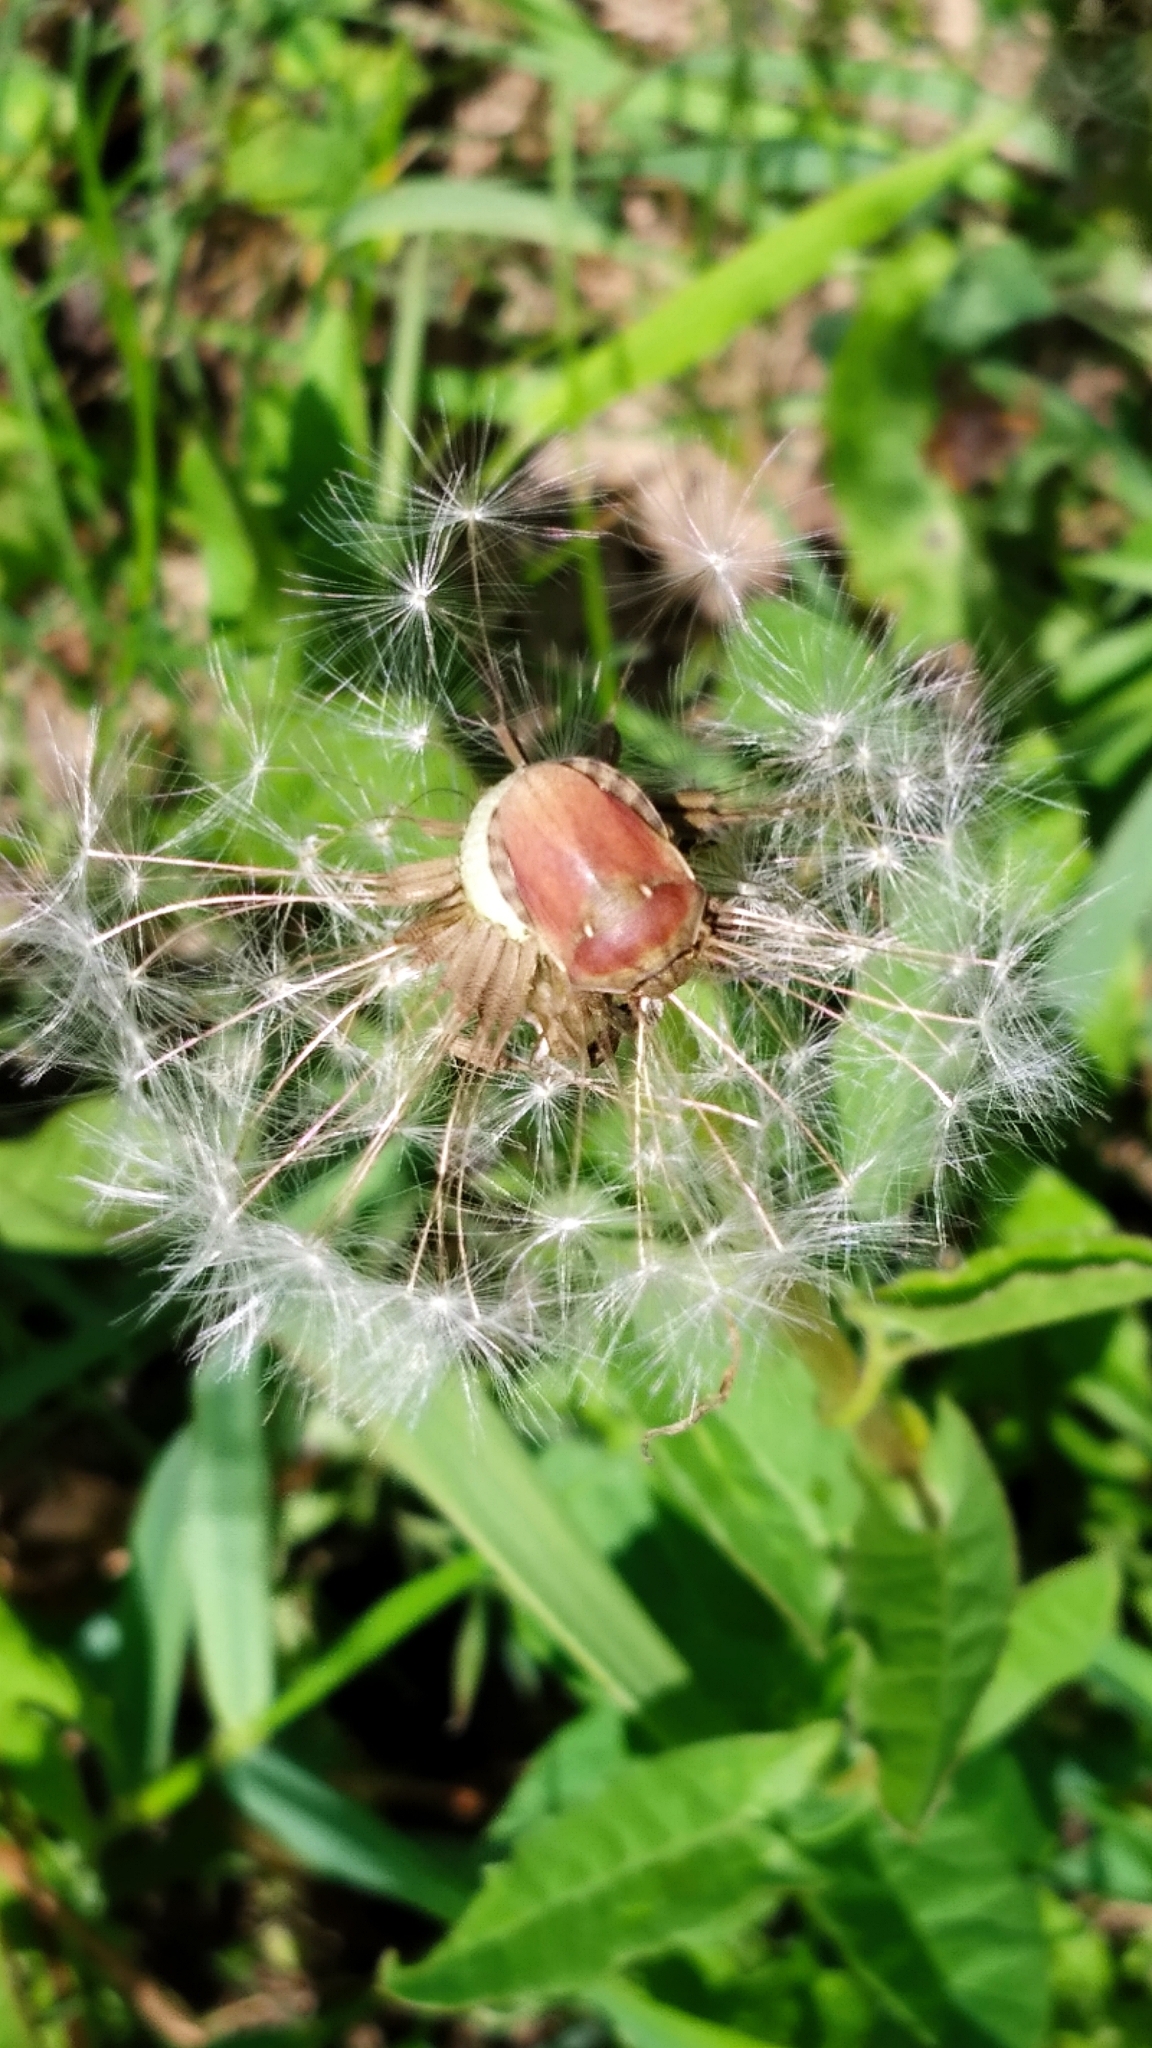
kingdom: Animalia
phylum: Arthropoda
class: Insecta
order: Hemiptera
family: Scutelleridae
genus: Eurygaster
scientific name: Eurygaster testudinaria
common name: Tortoise bug
